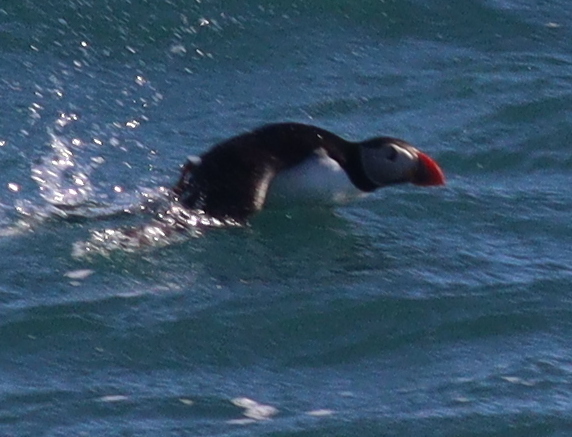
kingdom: Animalia
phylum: Chordata
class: Aves
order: Charadriiformes
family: Alcidae
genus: Fratercula
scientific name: Fratercula arctica
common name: Atlantic puffin
